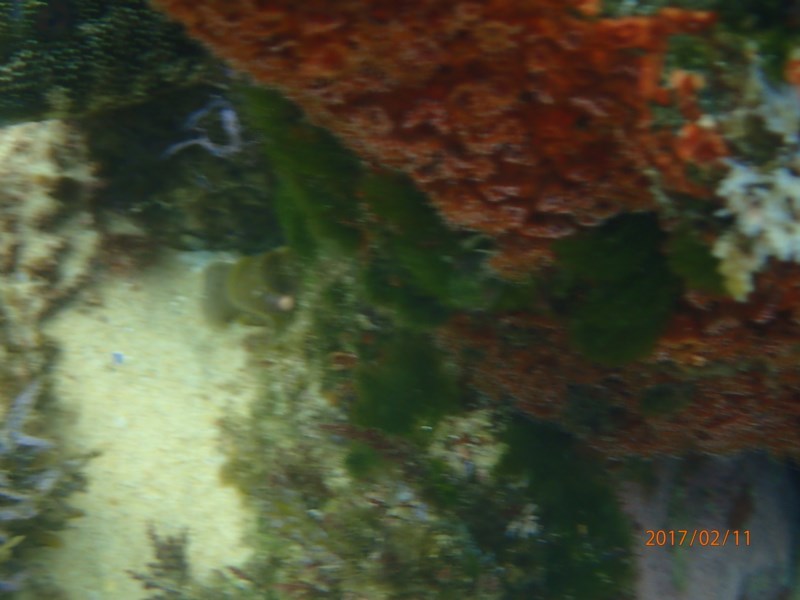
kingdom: Animalia
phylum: Cnidaria
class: Anthozoa
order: Corallimorpharia
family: Corallimorphidae
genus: Corynactis
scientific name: Corynactis australis
